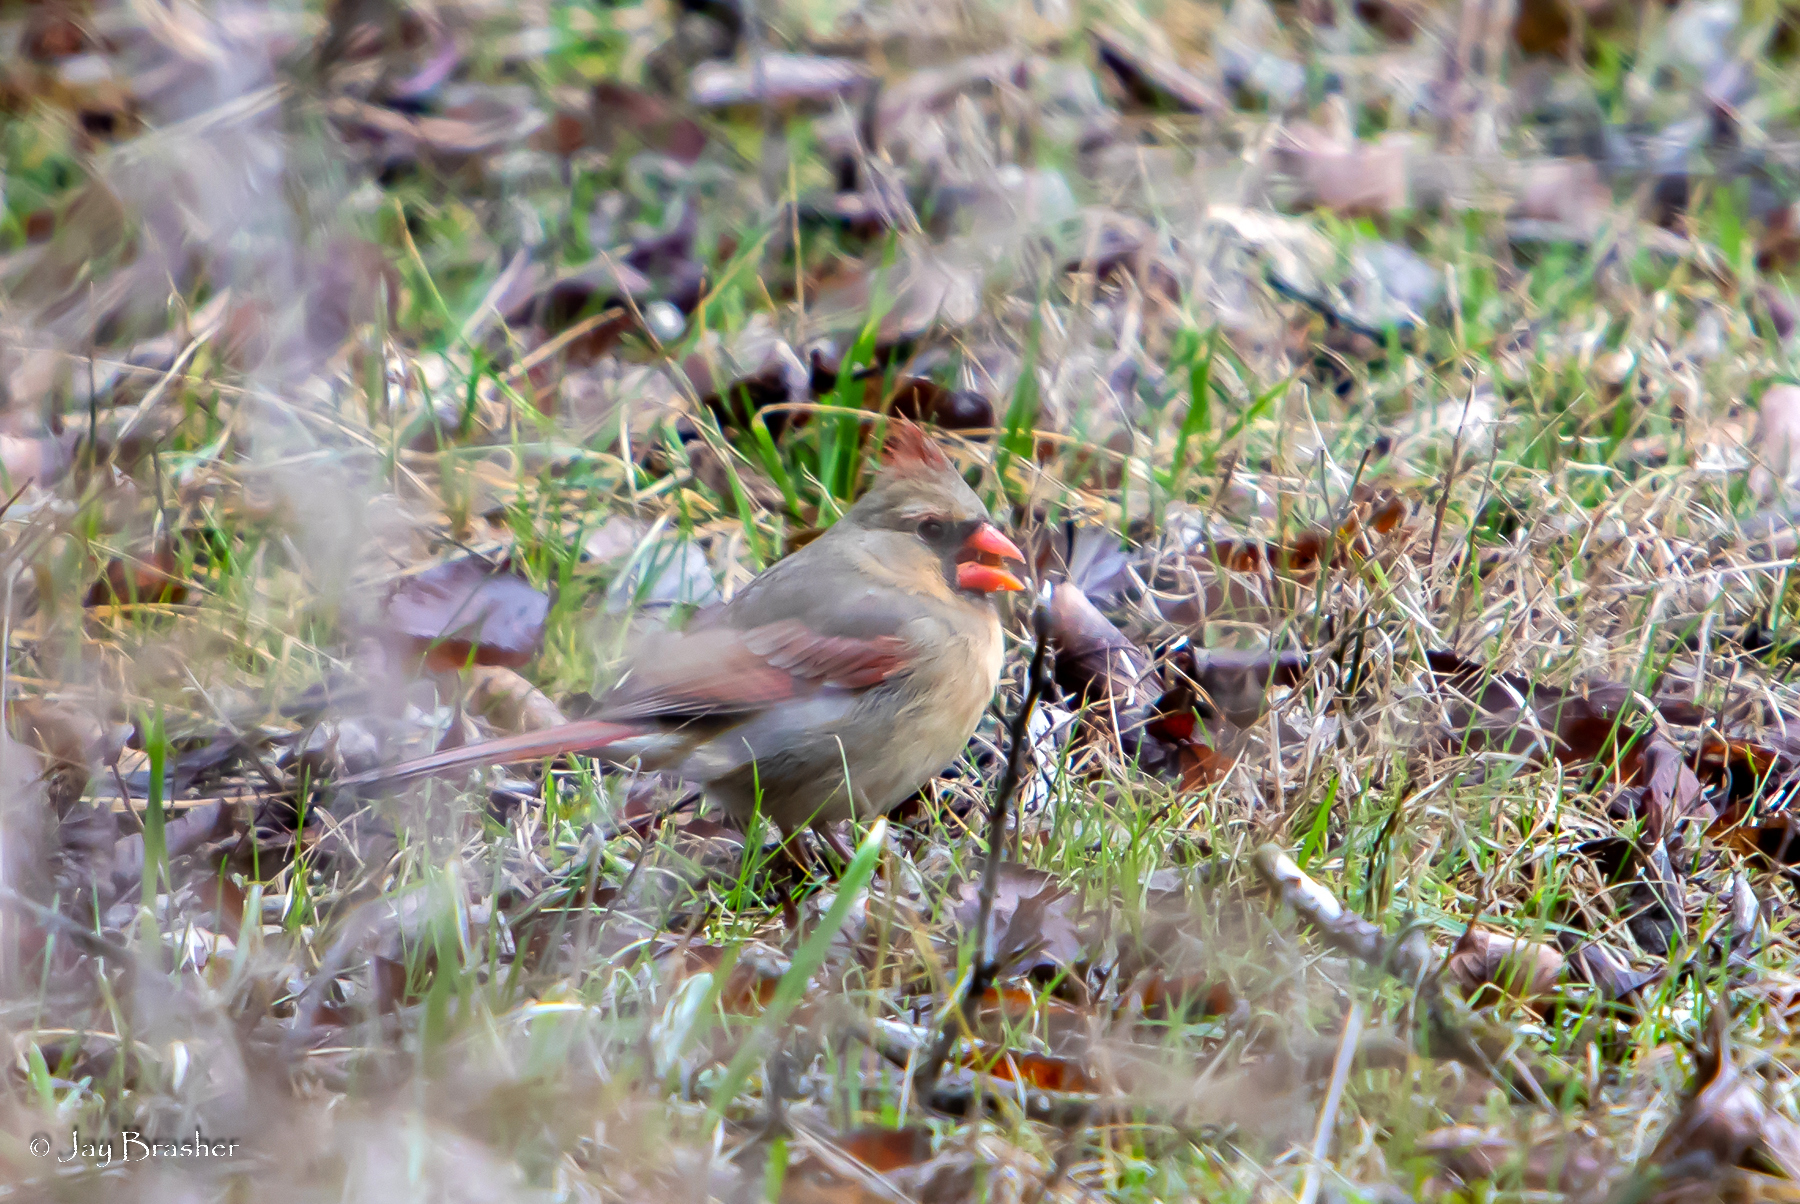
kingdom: Animalia
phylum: Chordata
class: Aves
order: Passeriformes
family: Cardinalidae
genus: Cardinalis
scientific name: Cardinalis cardinalis
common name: Northern cardinal
